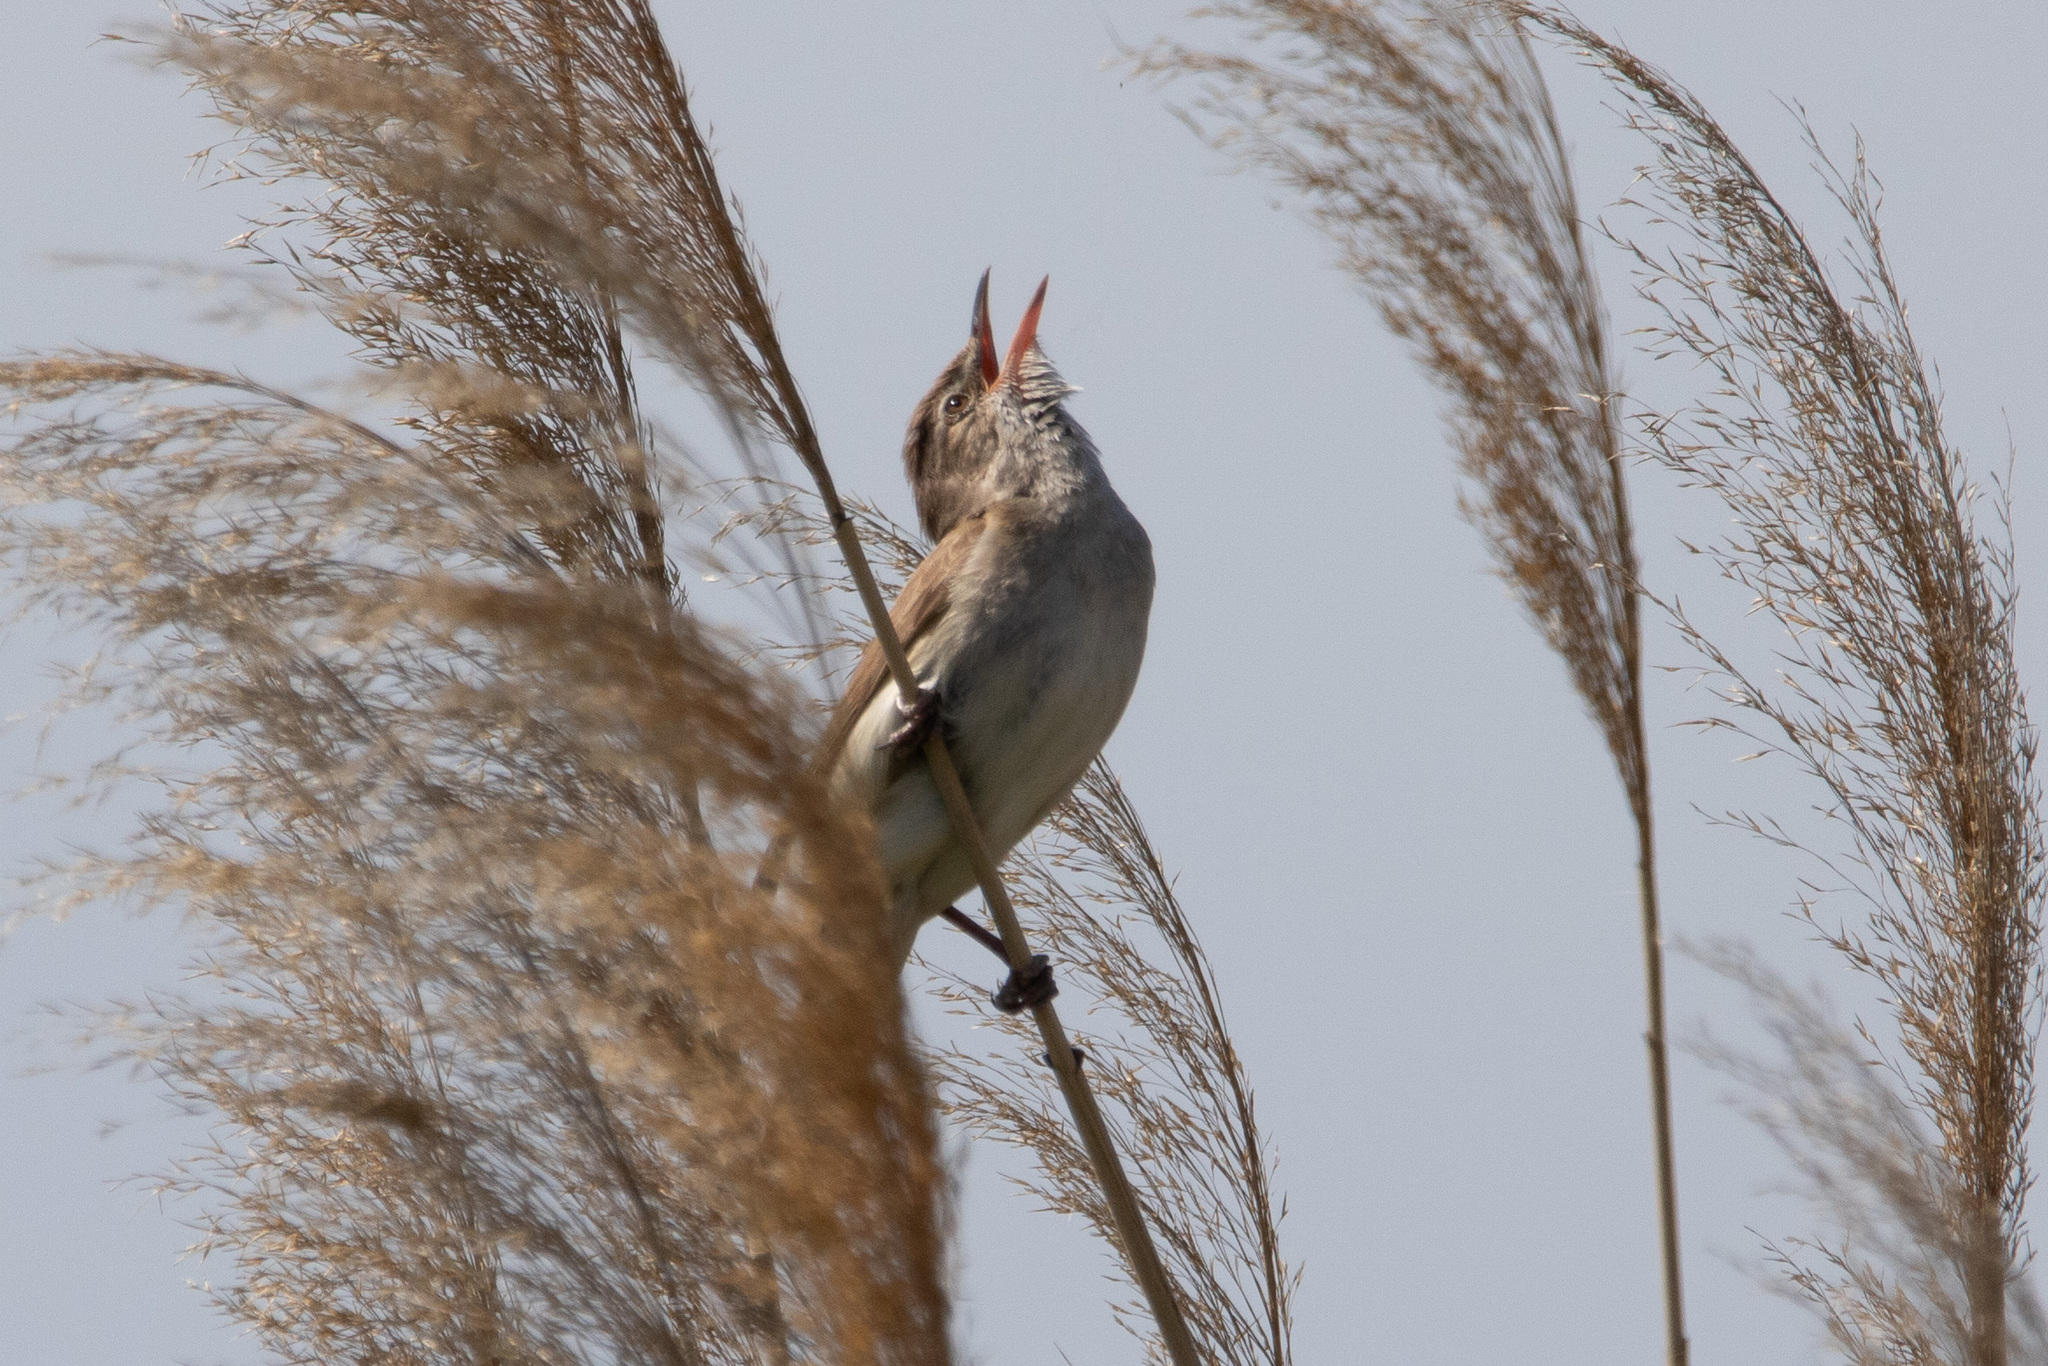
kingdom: Animalia
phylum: Chordata
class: Aves
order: Passeriformes
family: Acrocephalidae
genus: Acrocephalus
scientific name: Acrocephalus arundinaceus
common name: Great reed warbler
